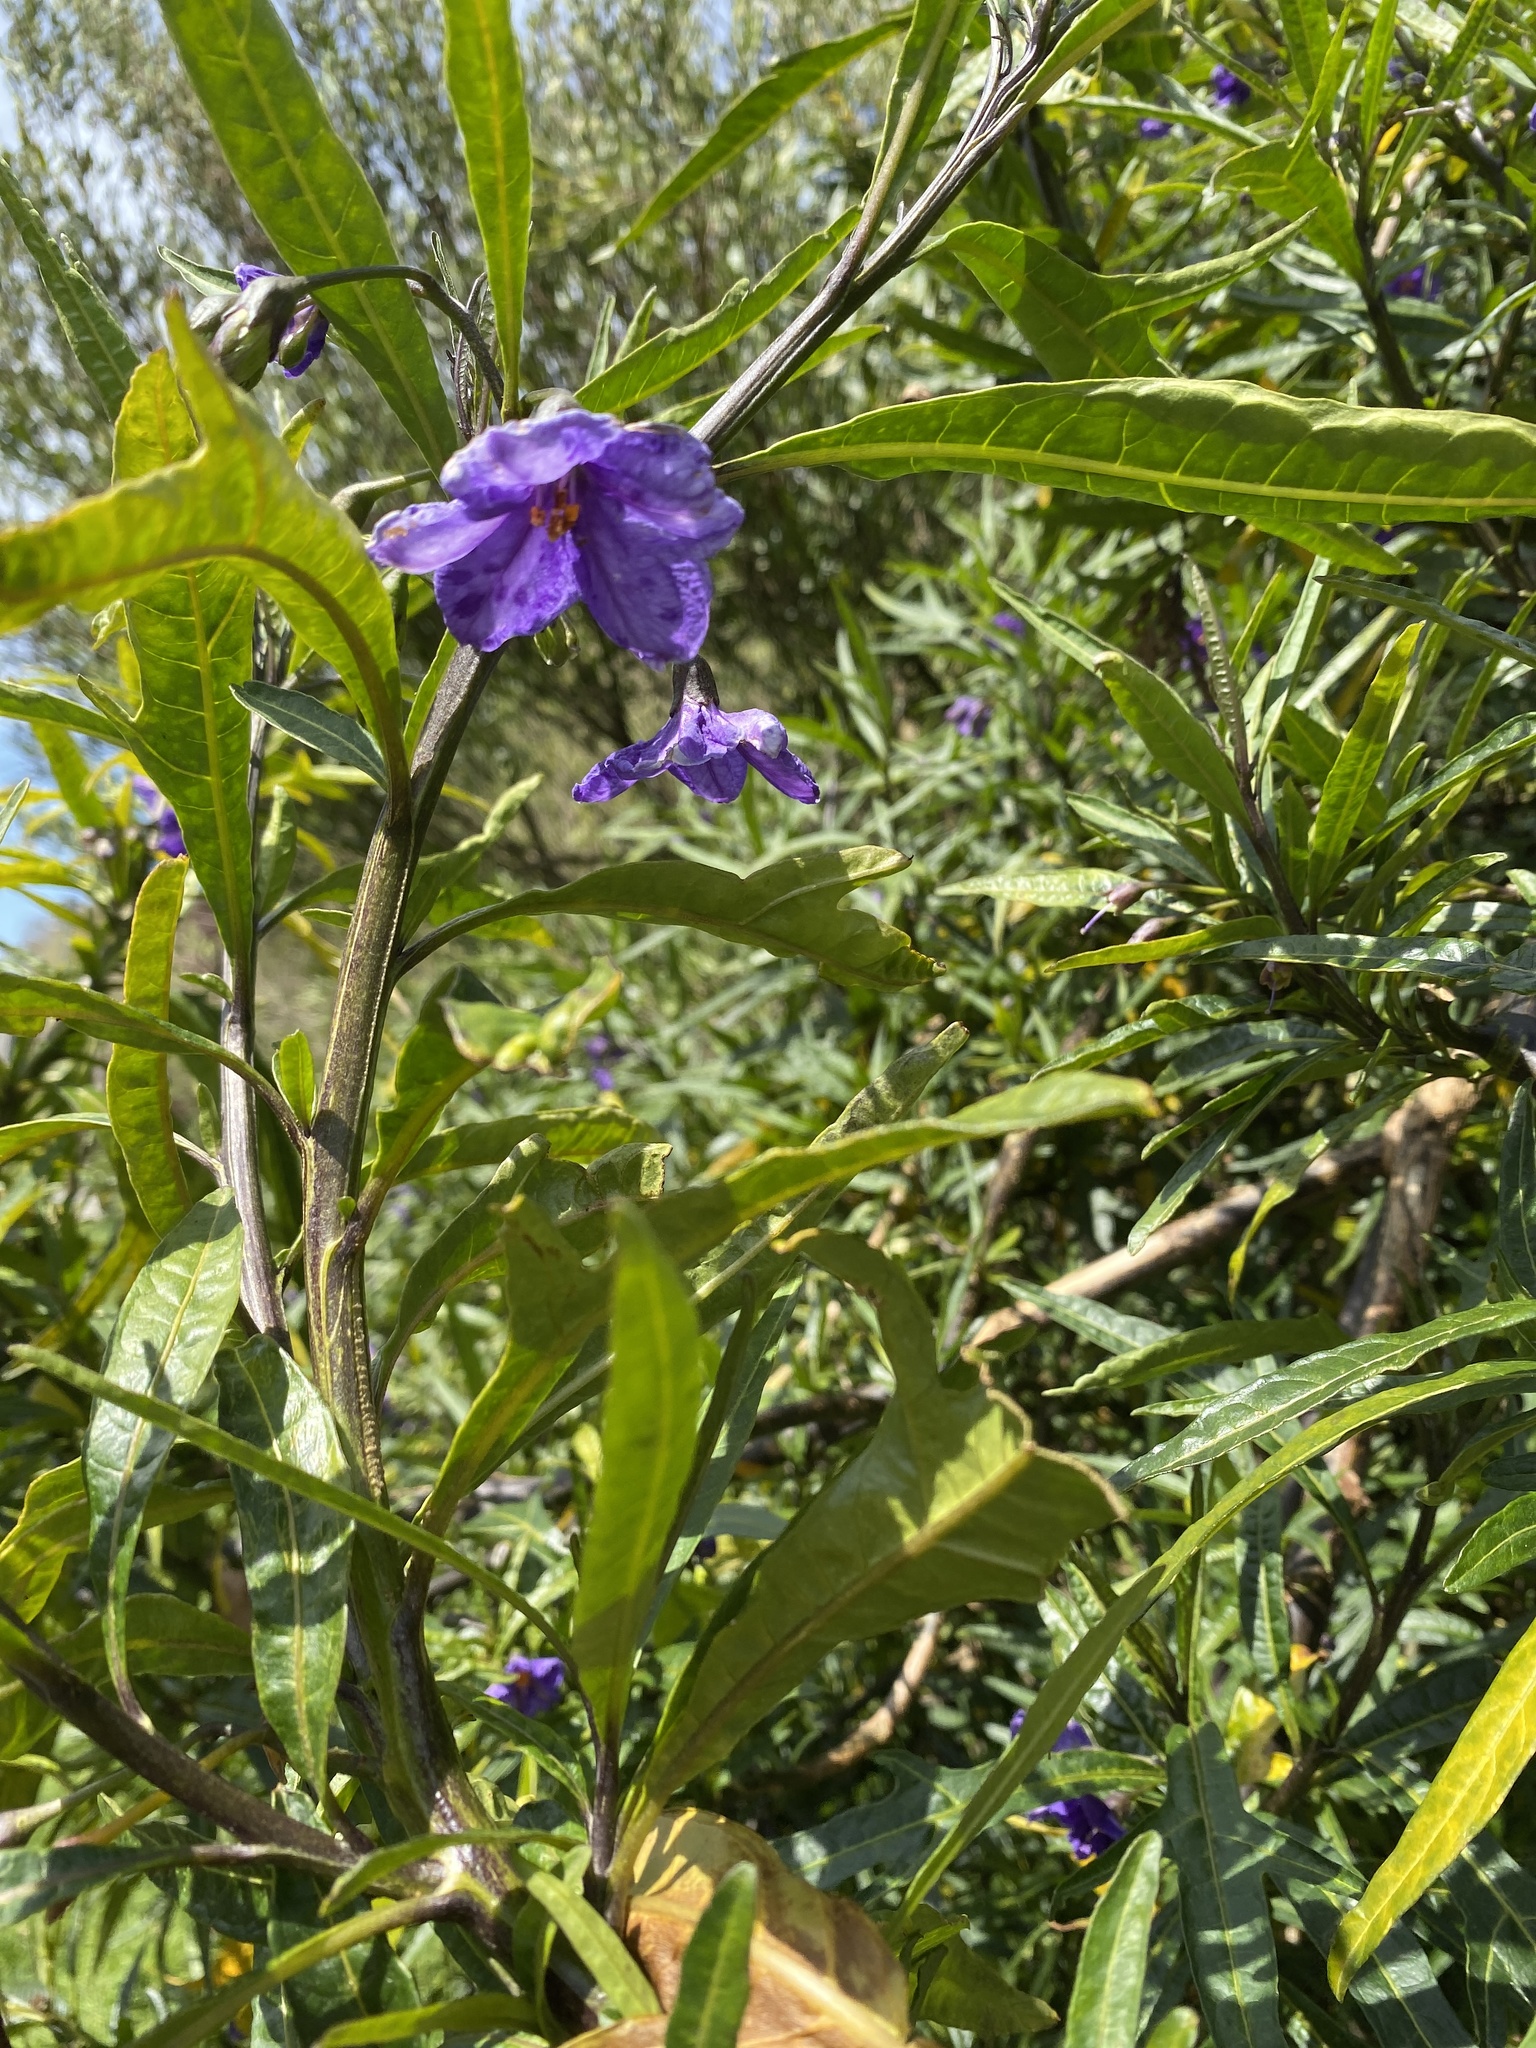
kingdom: Plantae
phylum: Tracheophyta
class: Magnoliopsida
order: Solanales
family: Solanaceae
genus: Solanum
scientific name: Solanum laciniatum
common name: Kangaroo-apple
